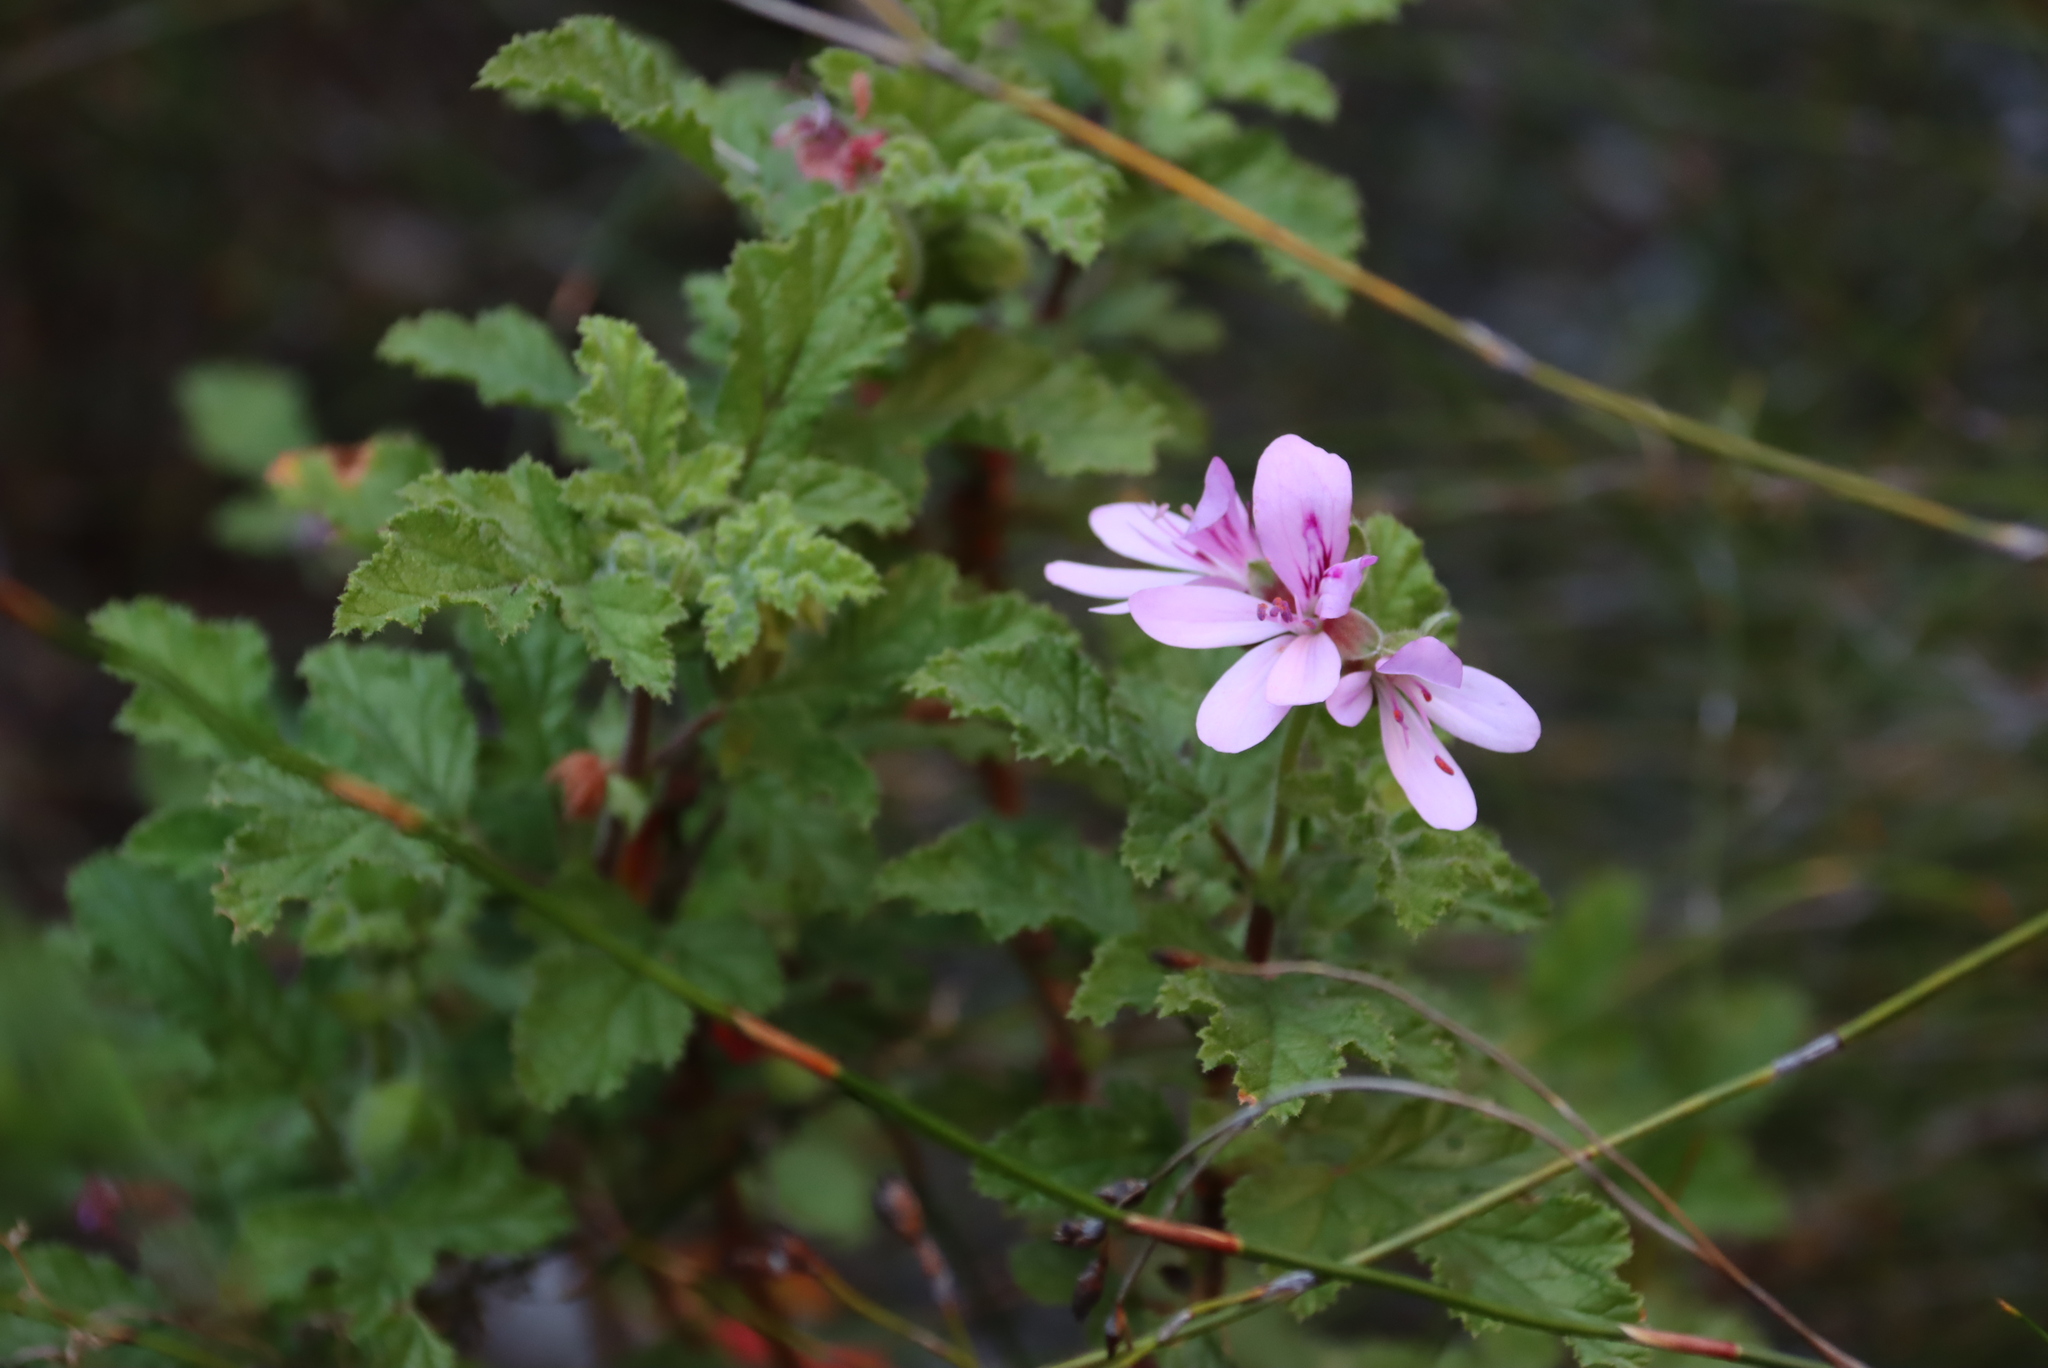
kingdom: Plantae
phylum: Tracheophyta
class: Magnoliopsida
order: Geraniales
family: Geraniaceae
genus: Pelargonium
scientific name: Pelargonium panduriforme
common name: Oakleaf garden geranium
